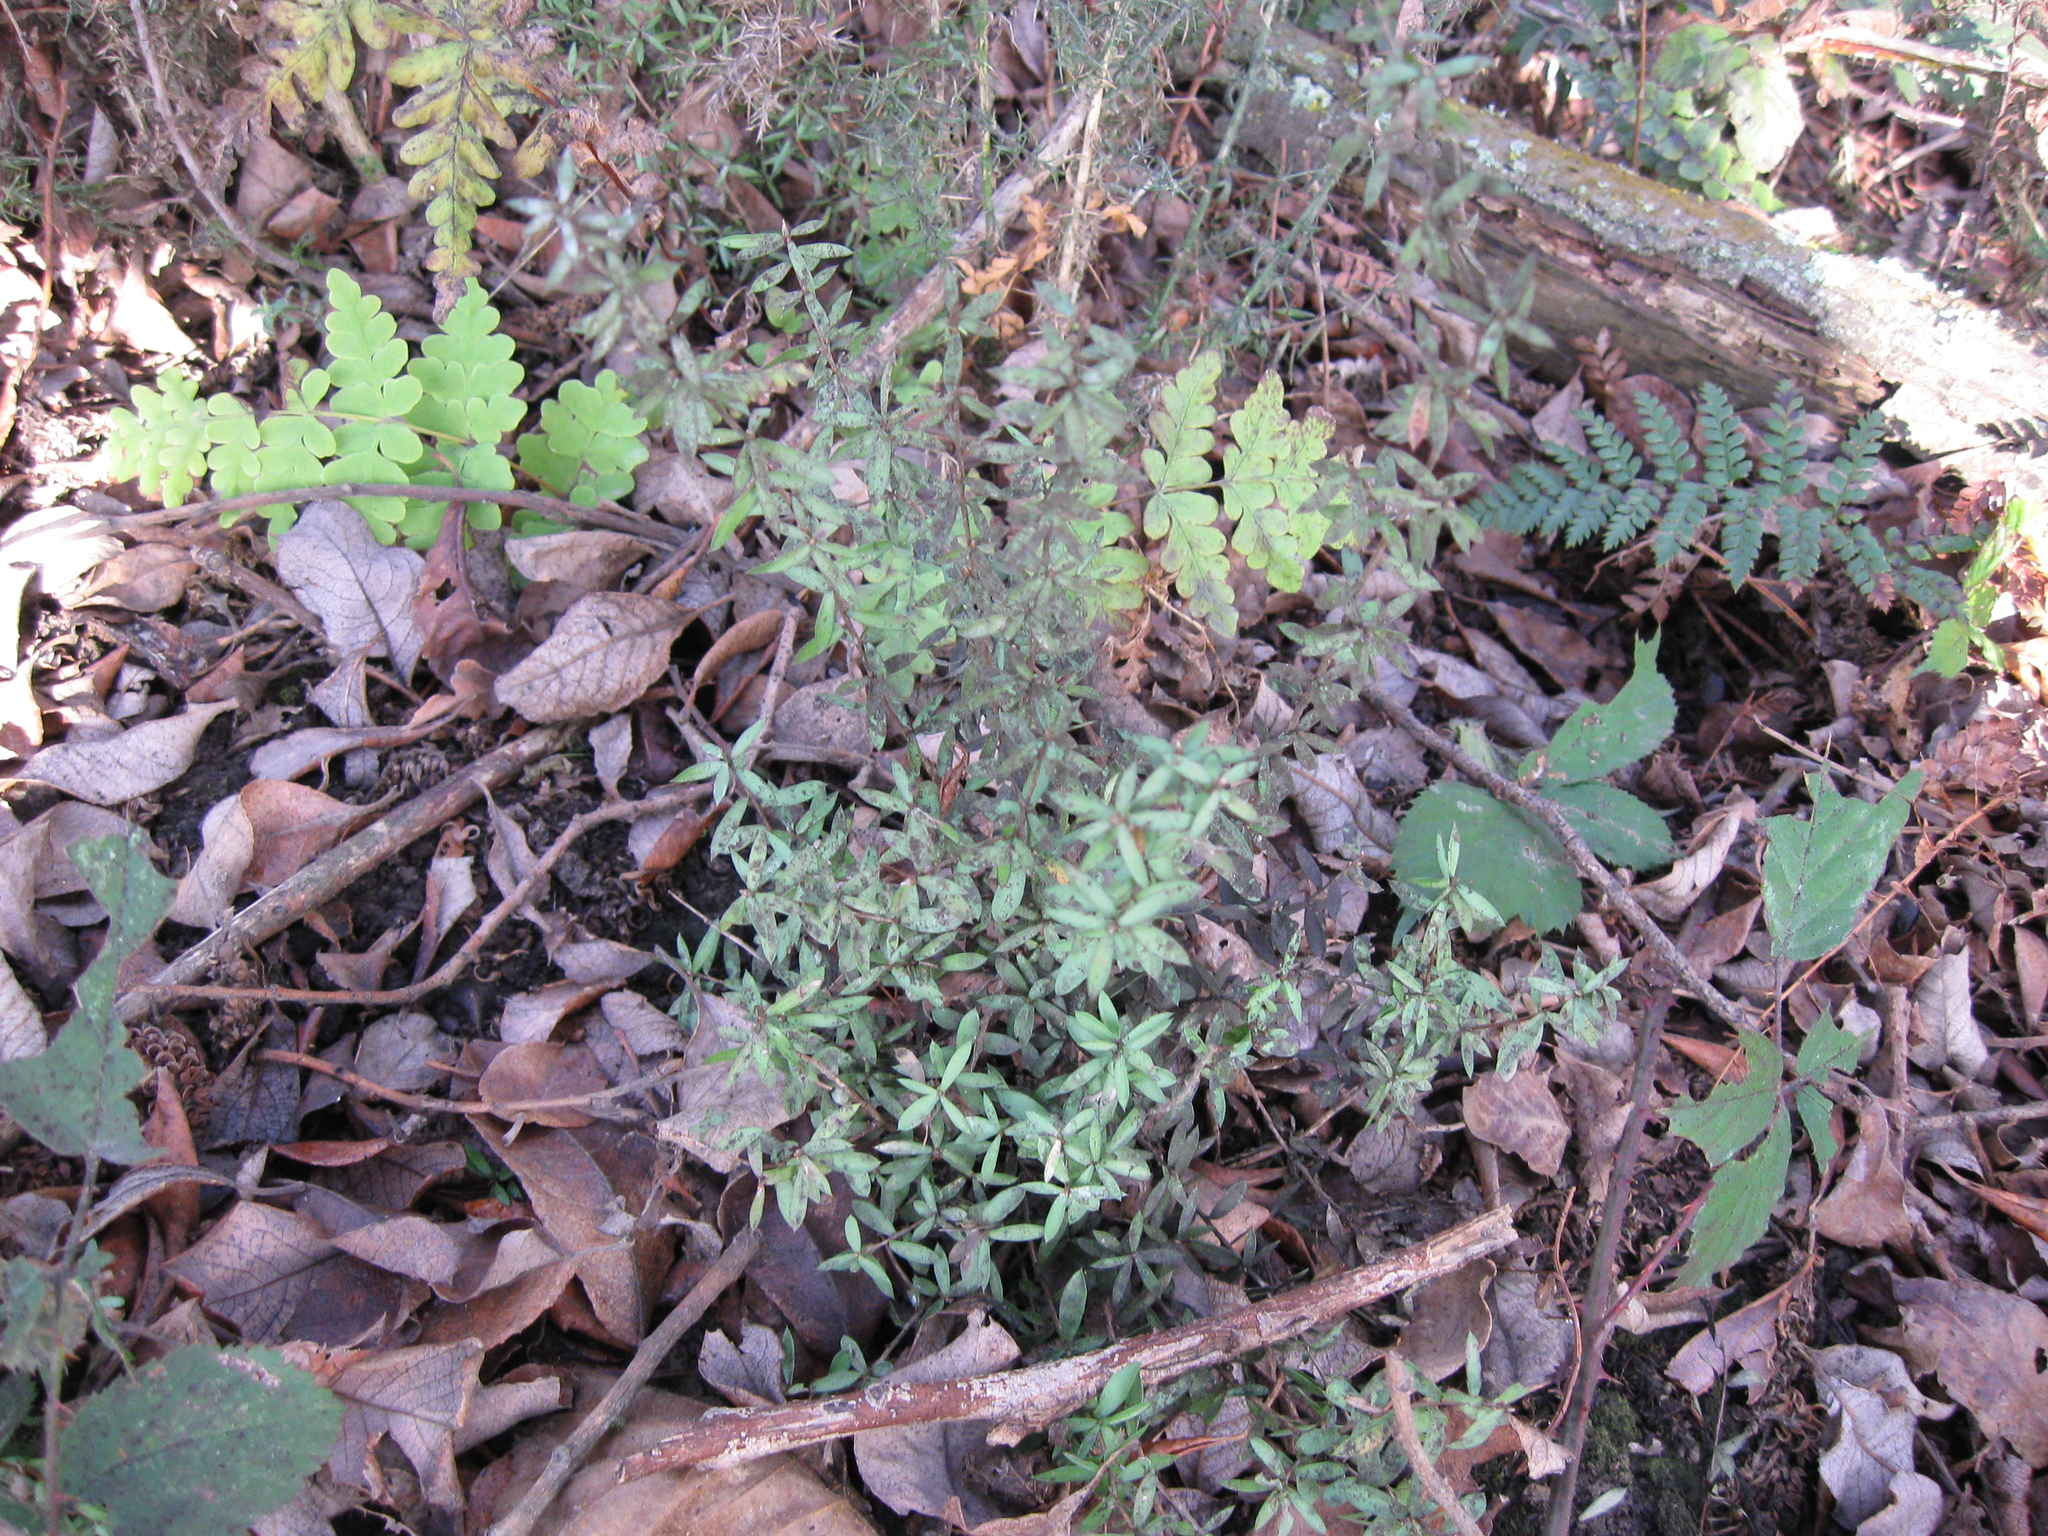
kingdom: Plantae
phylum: Tracheophyta
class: Magnoliopsida
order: Myrtales
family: Myrtaceae
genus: Leptospermum
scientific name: Leptospermum scoparium
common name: Broom tea-tree
